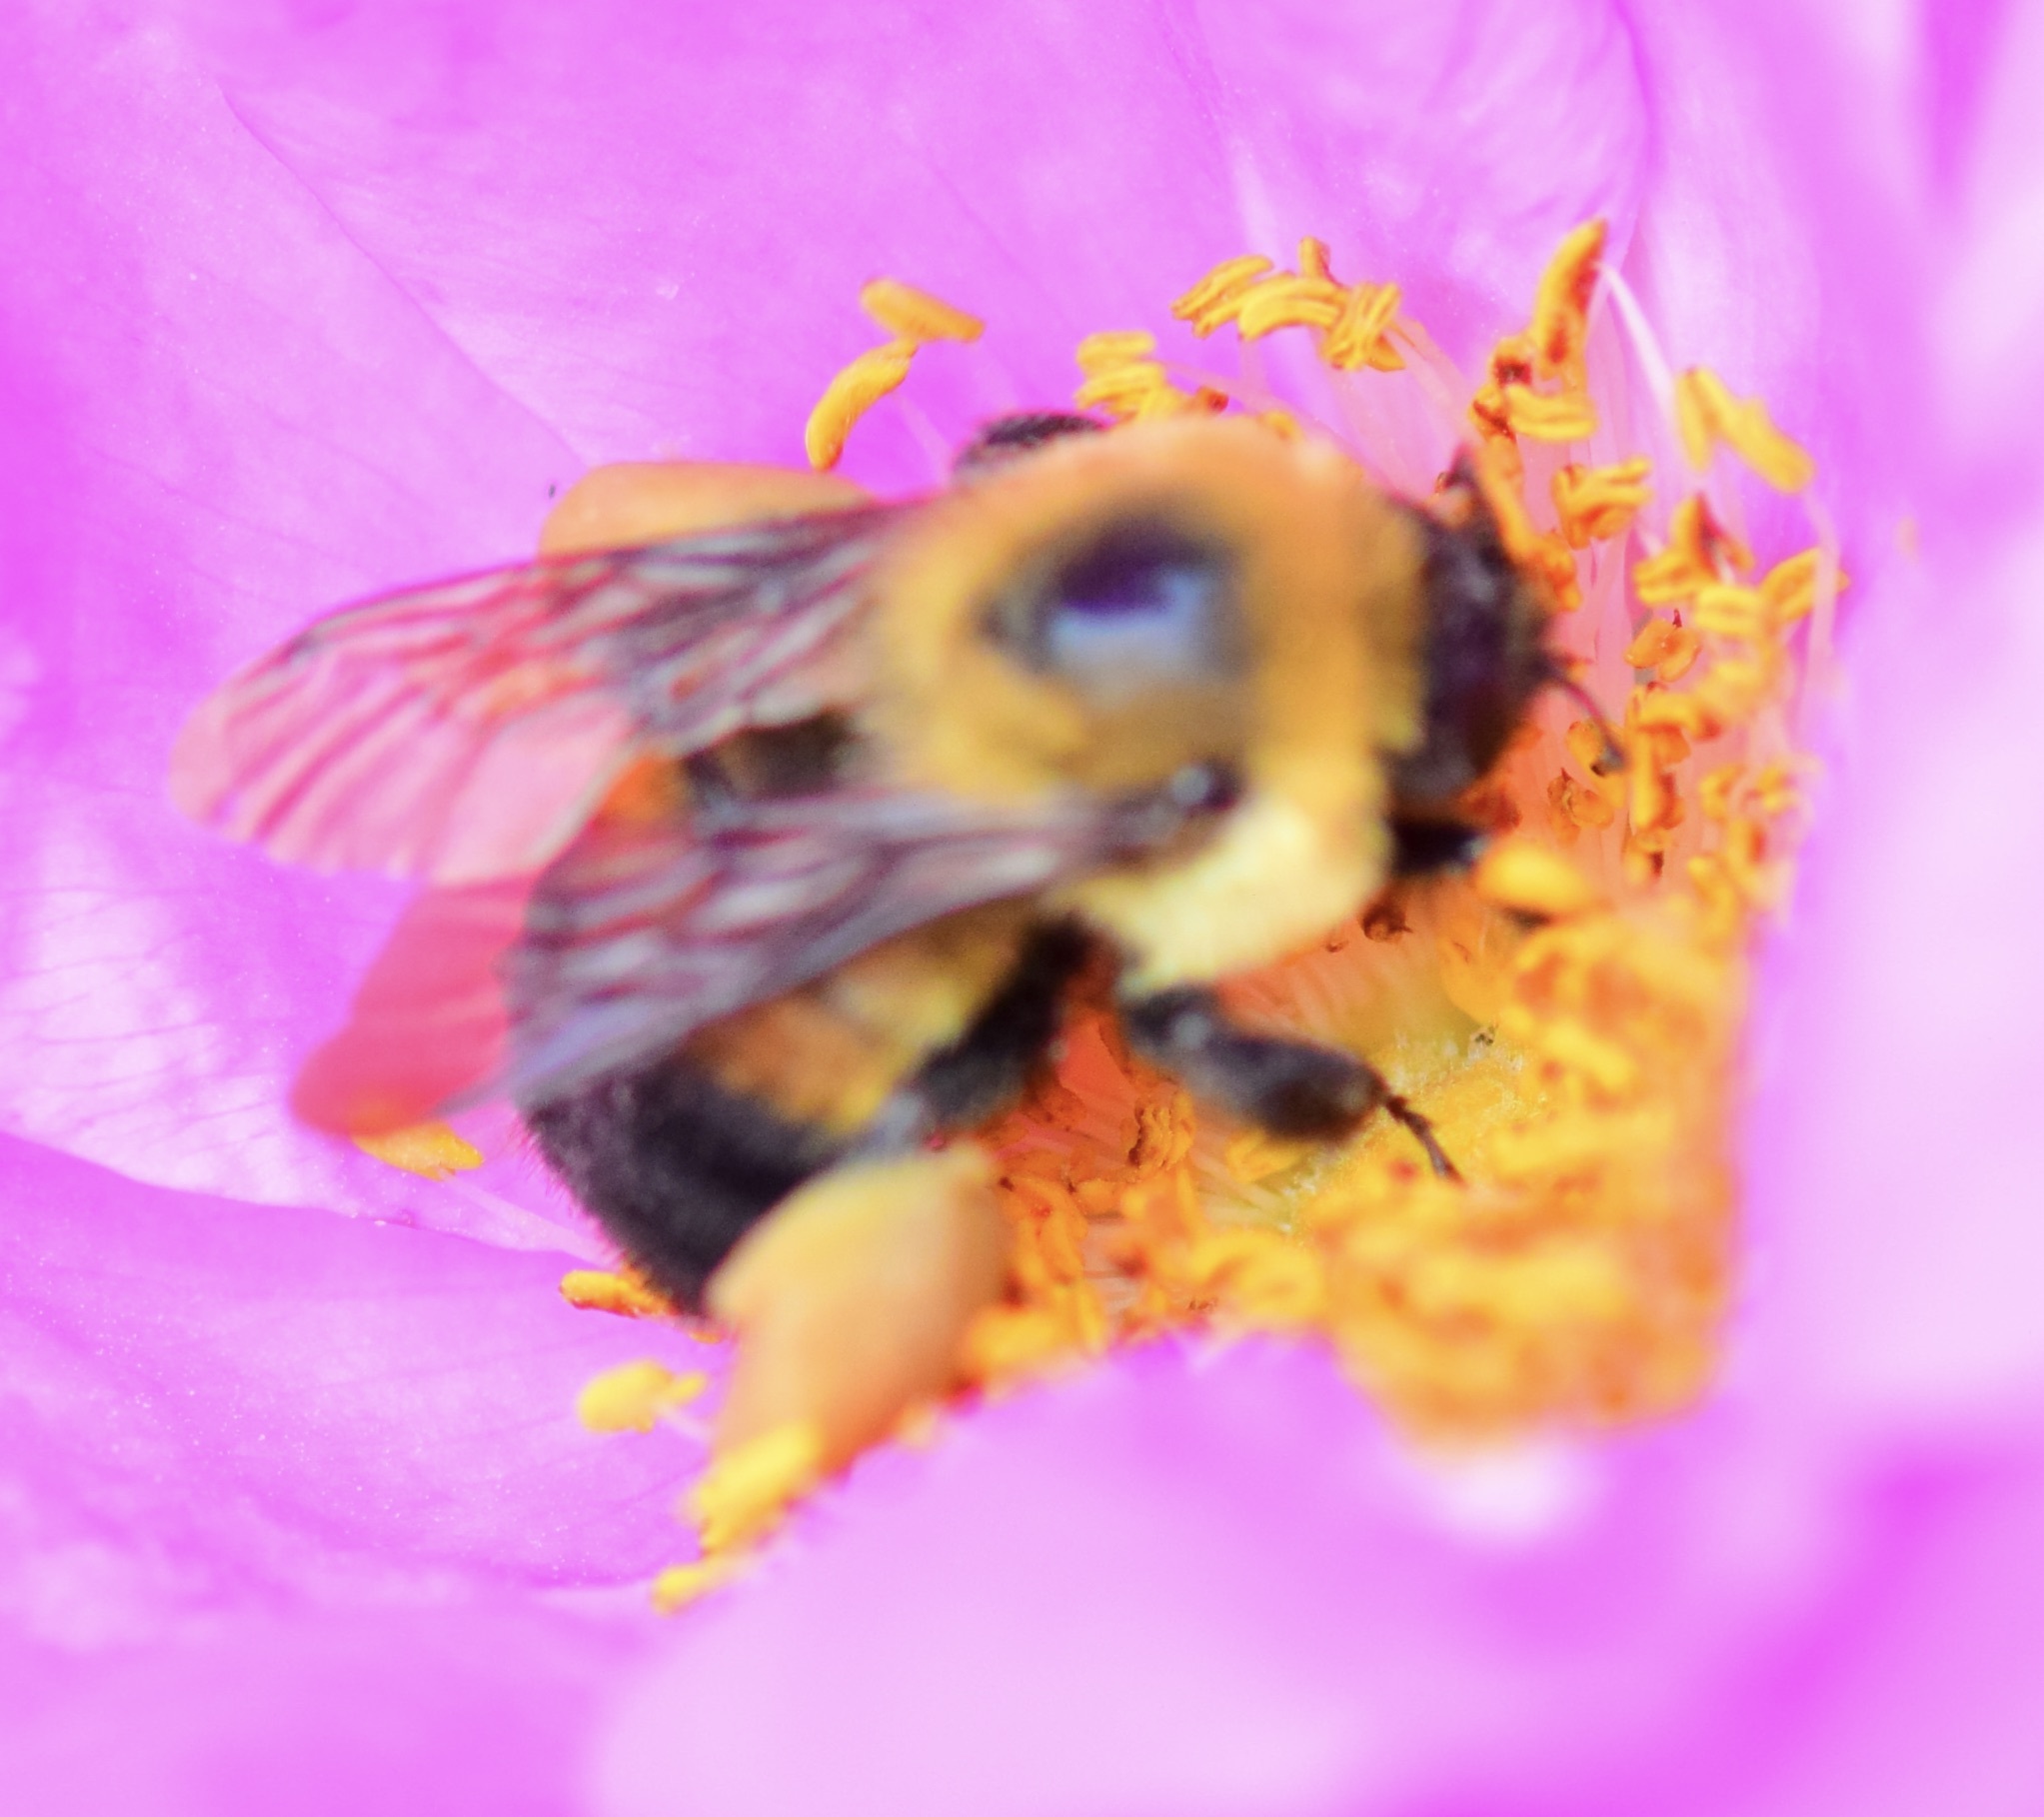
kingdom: Animalia
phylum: Arthropoda
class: Insecta
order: Hymenoptera
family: Apidae
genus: Bombus
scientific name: Bombus griseocollis
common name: Brown-belted bumble bee
